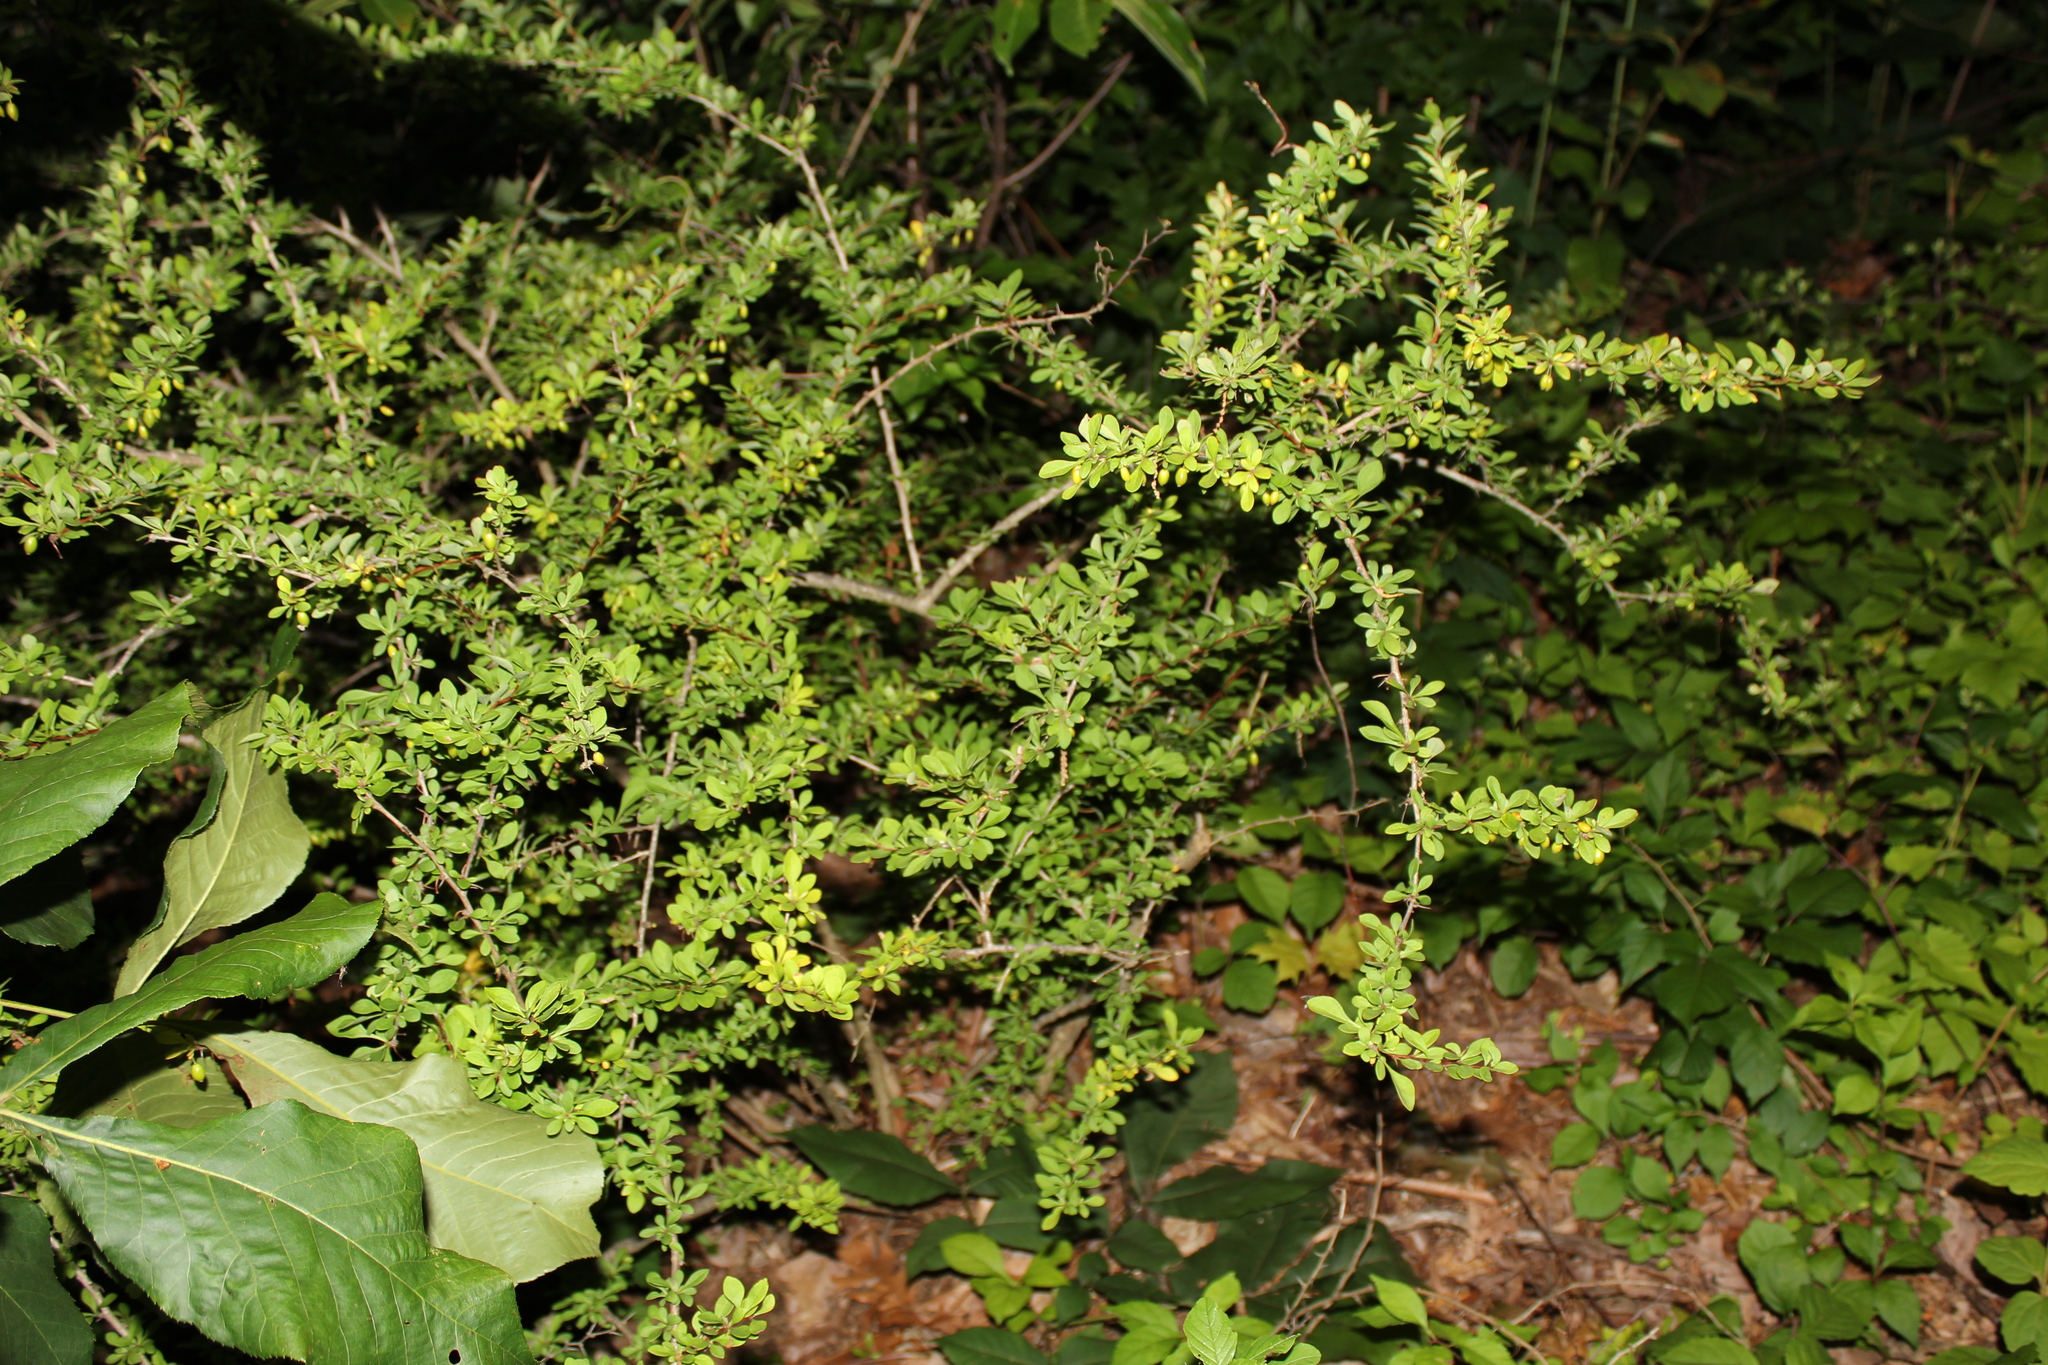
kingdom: Plantae
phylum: Tracheophyta
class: Magnoliopsida
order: Ranunculales
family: Berberidaceae
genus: Berberis
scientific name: Berberis thunbergii
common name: Japanese barberry
